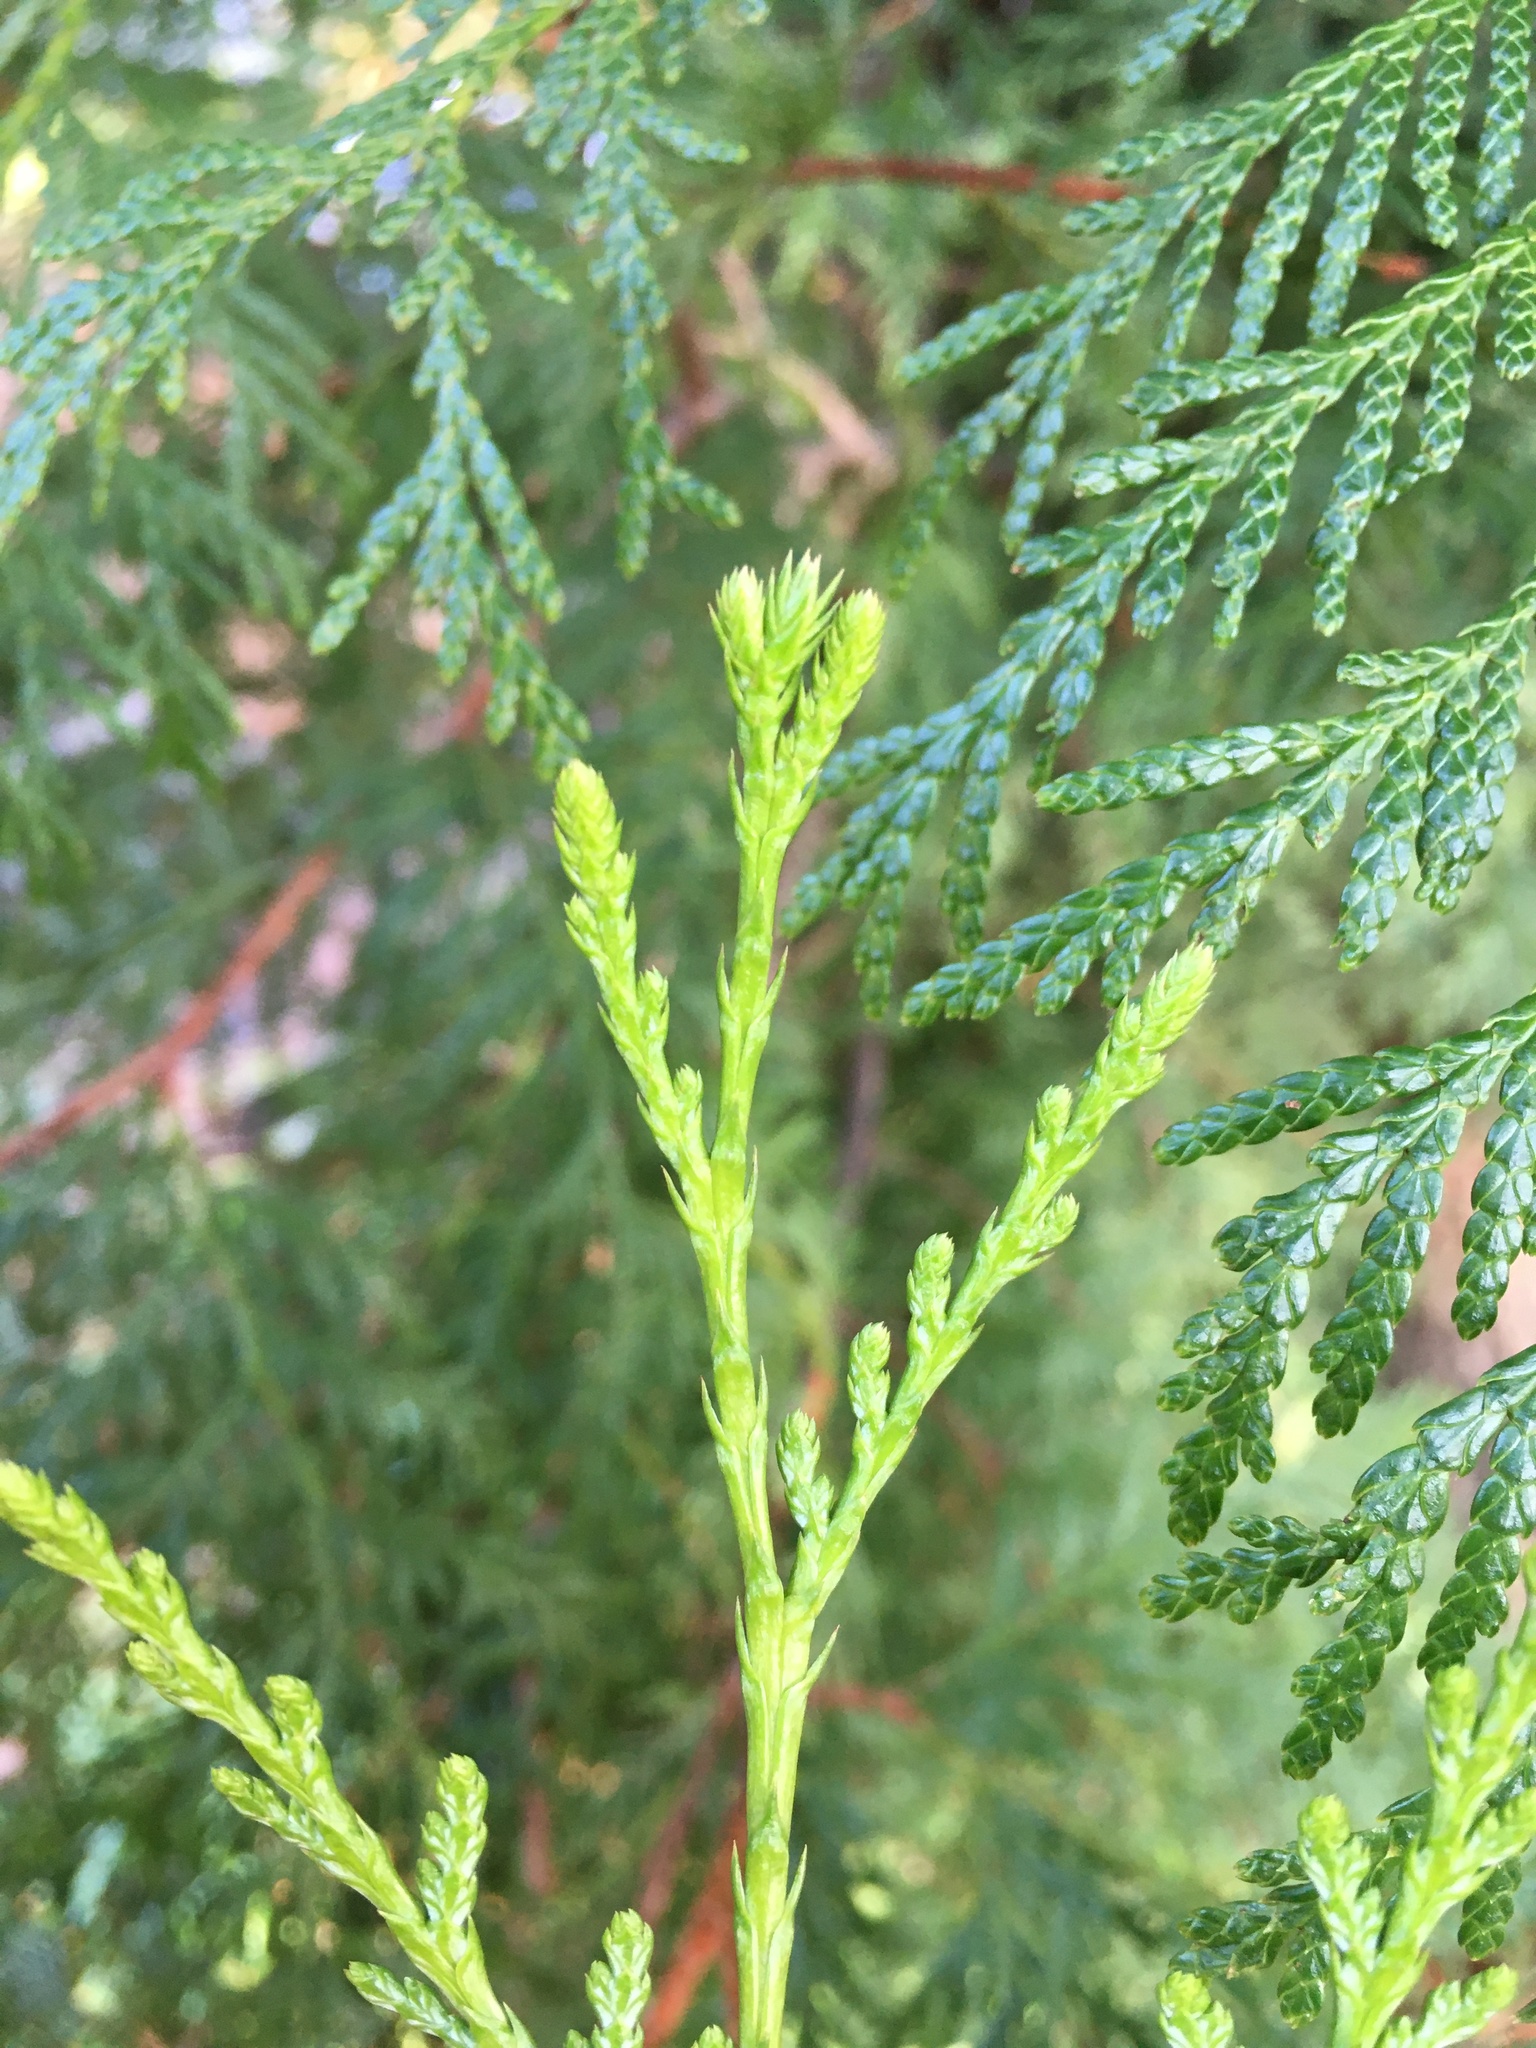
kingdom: Plantae
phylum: Tracheophyta
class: Pinopsida
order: Pinales
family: Cupressaceae
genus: Thuja
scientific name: Thuja plicata
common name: Western red-cedar
